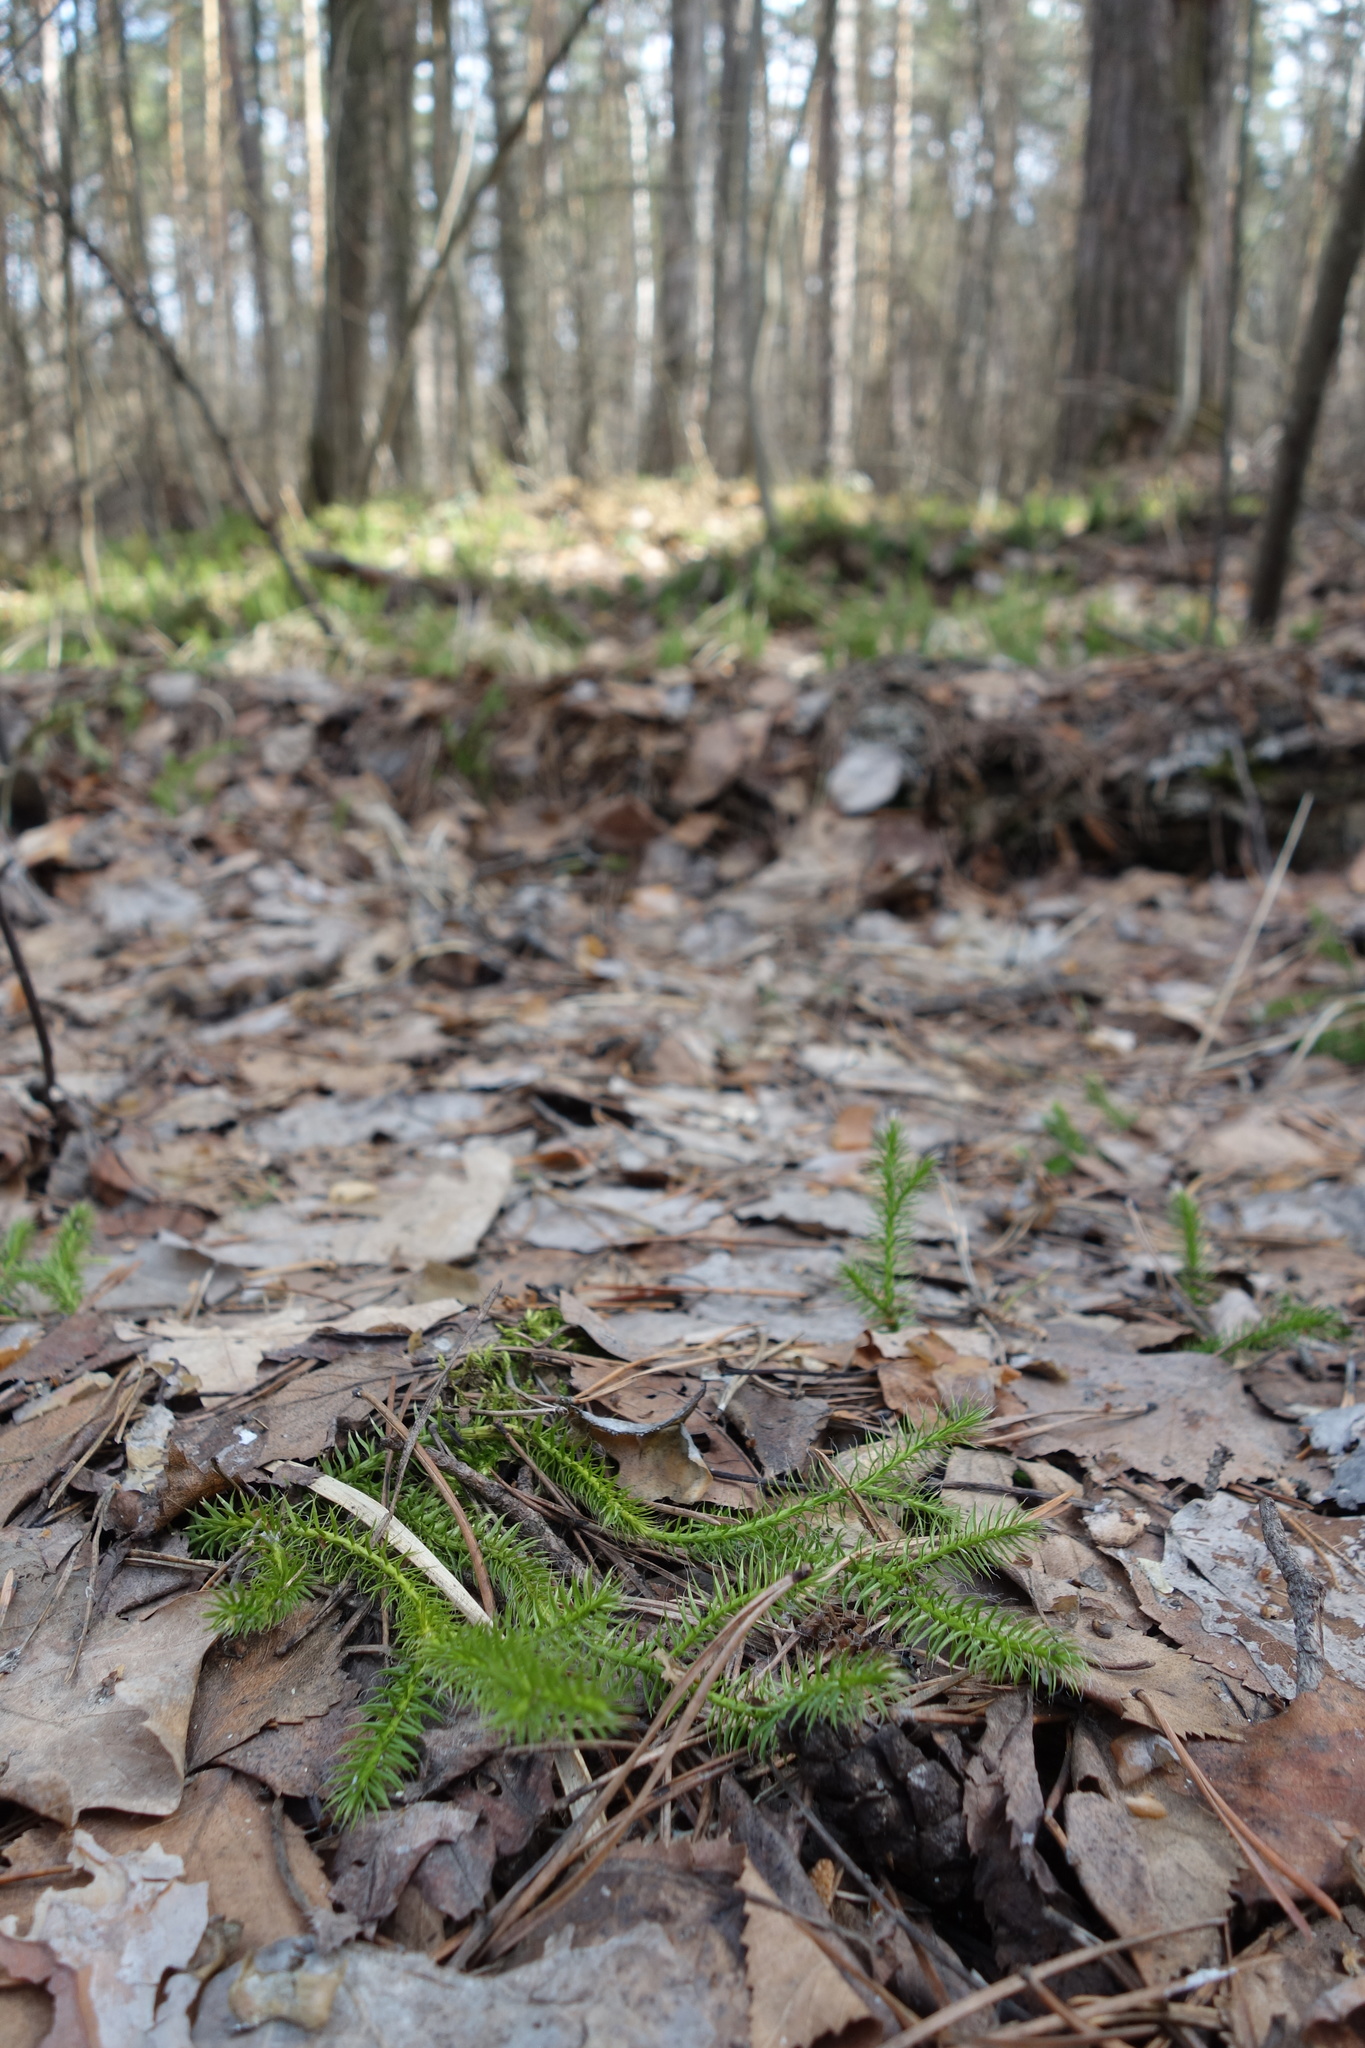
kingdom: Plantae
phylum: Tracheophyta
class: Lycopodiopsida
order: Lycopodiales
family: Lycopodiaceae
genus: Lycopodium
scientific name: Lycopodium clavatum
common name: Stag's-horn clubmoss
